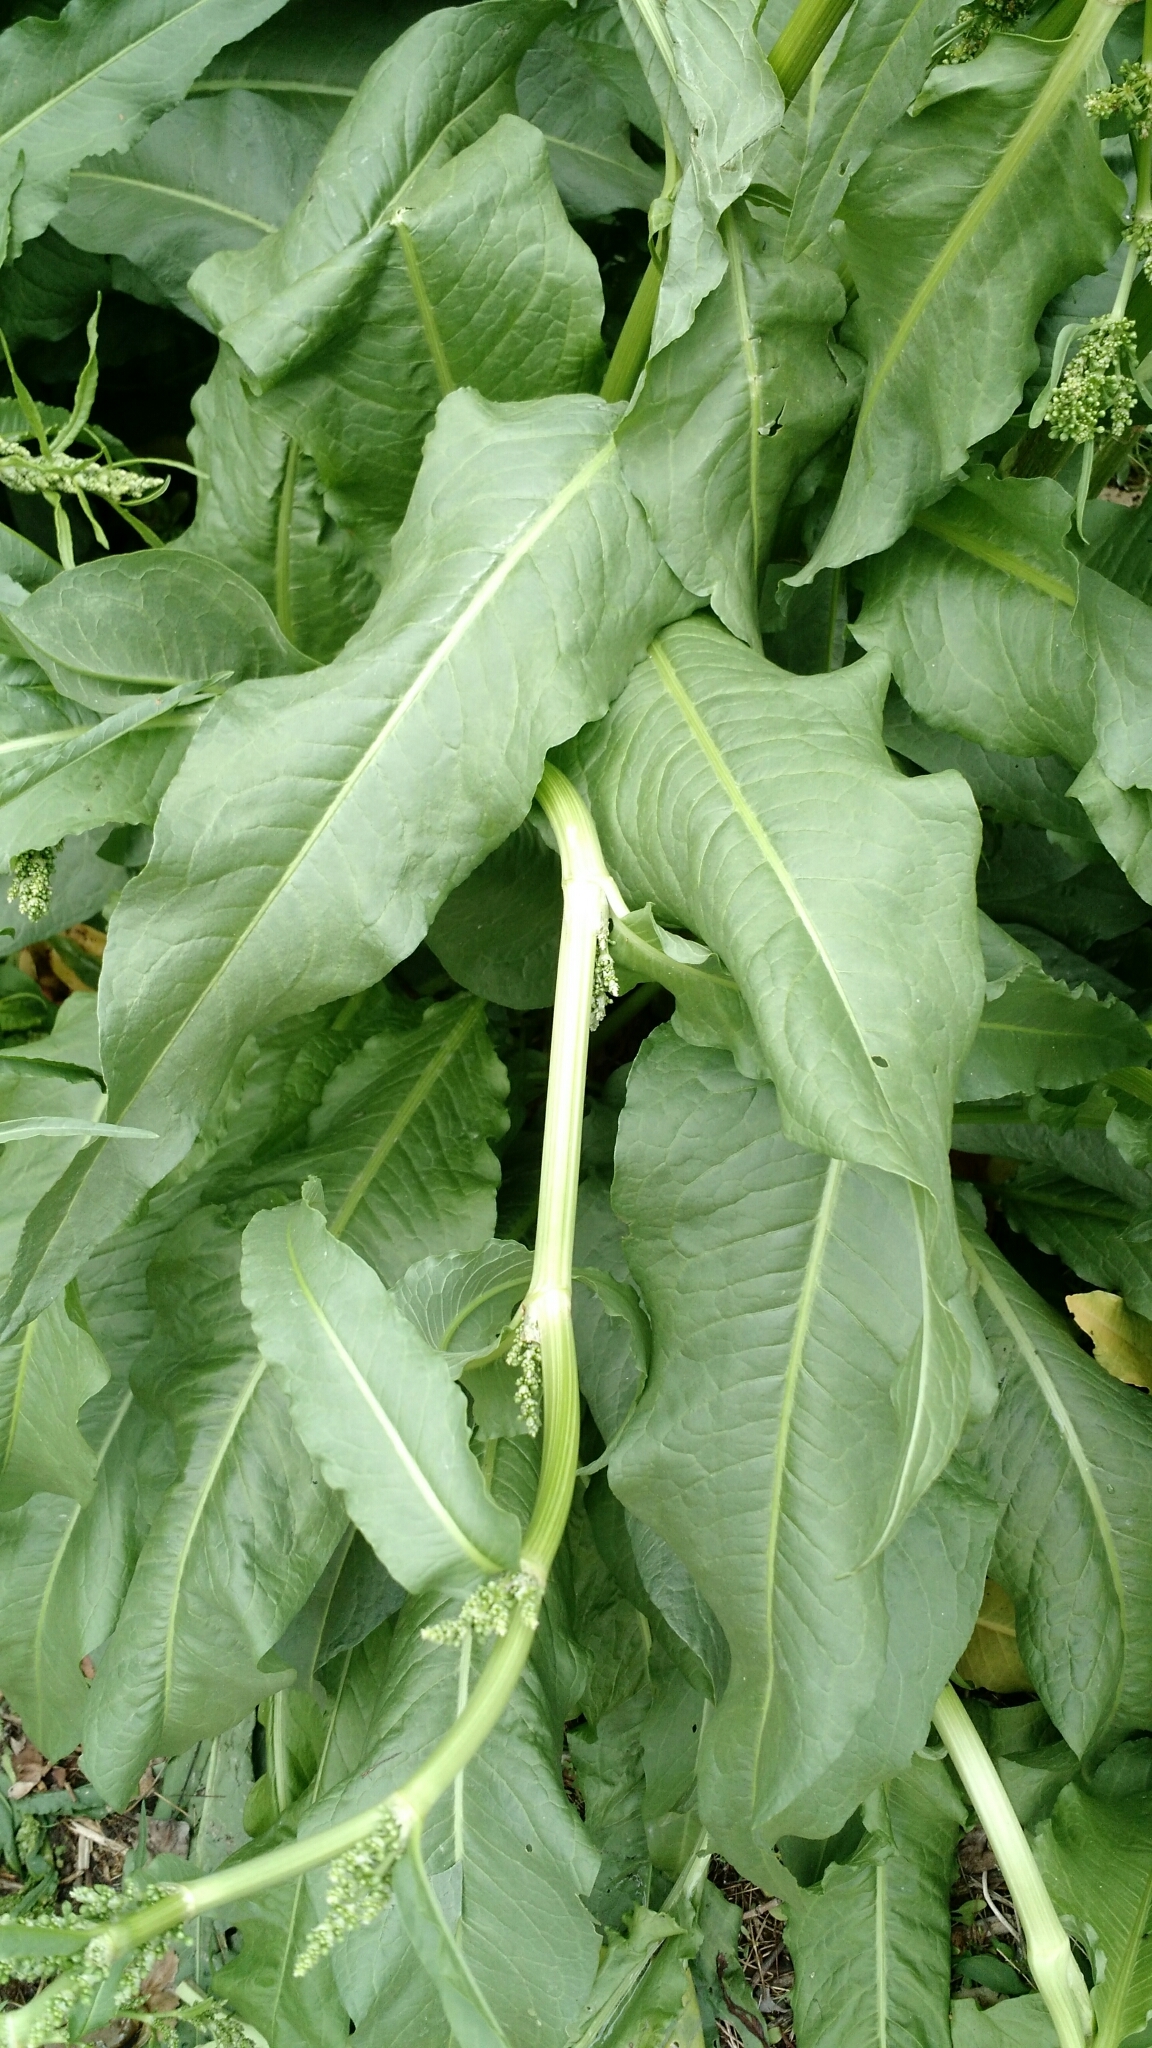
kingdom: Plantae
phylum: Tracheophyta
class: Magnoliopsida
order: Caryophyllales
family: Polygonaceae
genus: Rumex
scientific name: Rumex crispus
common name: Curled dock
